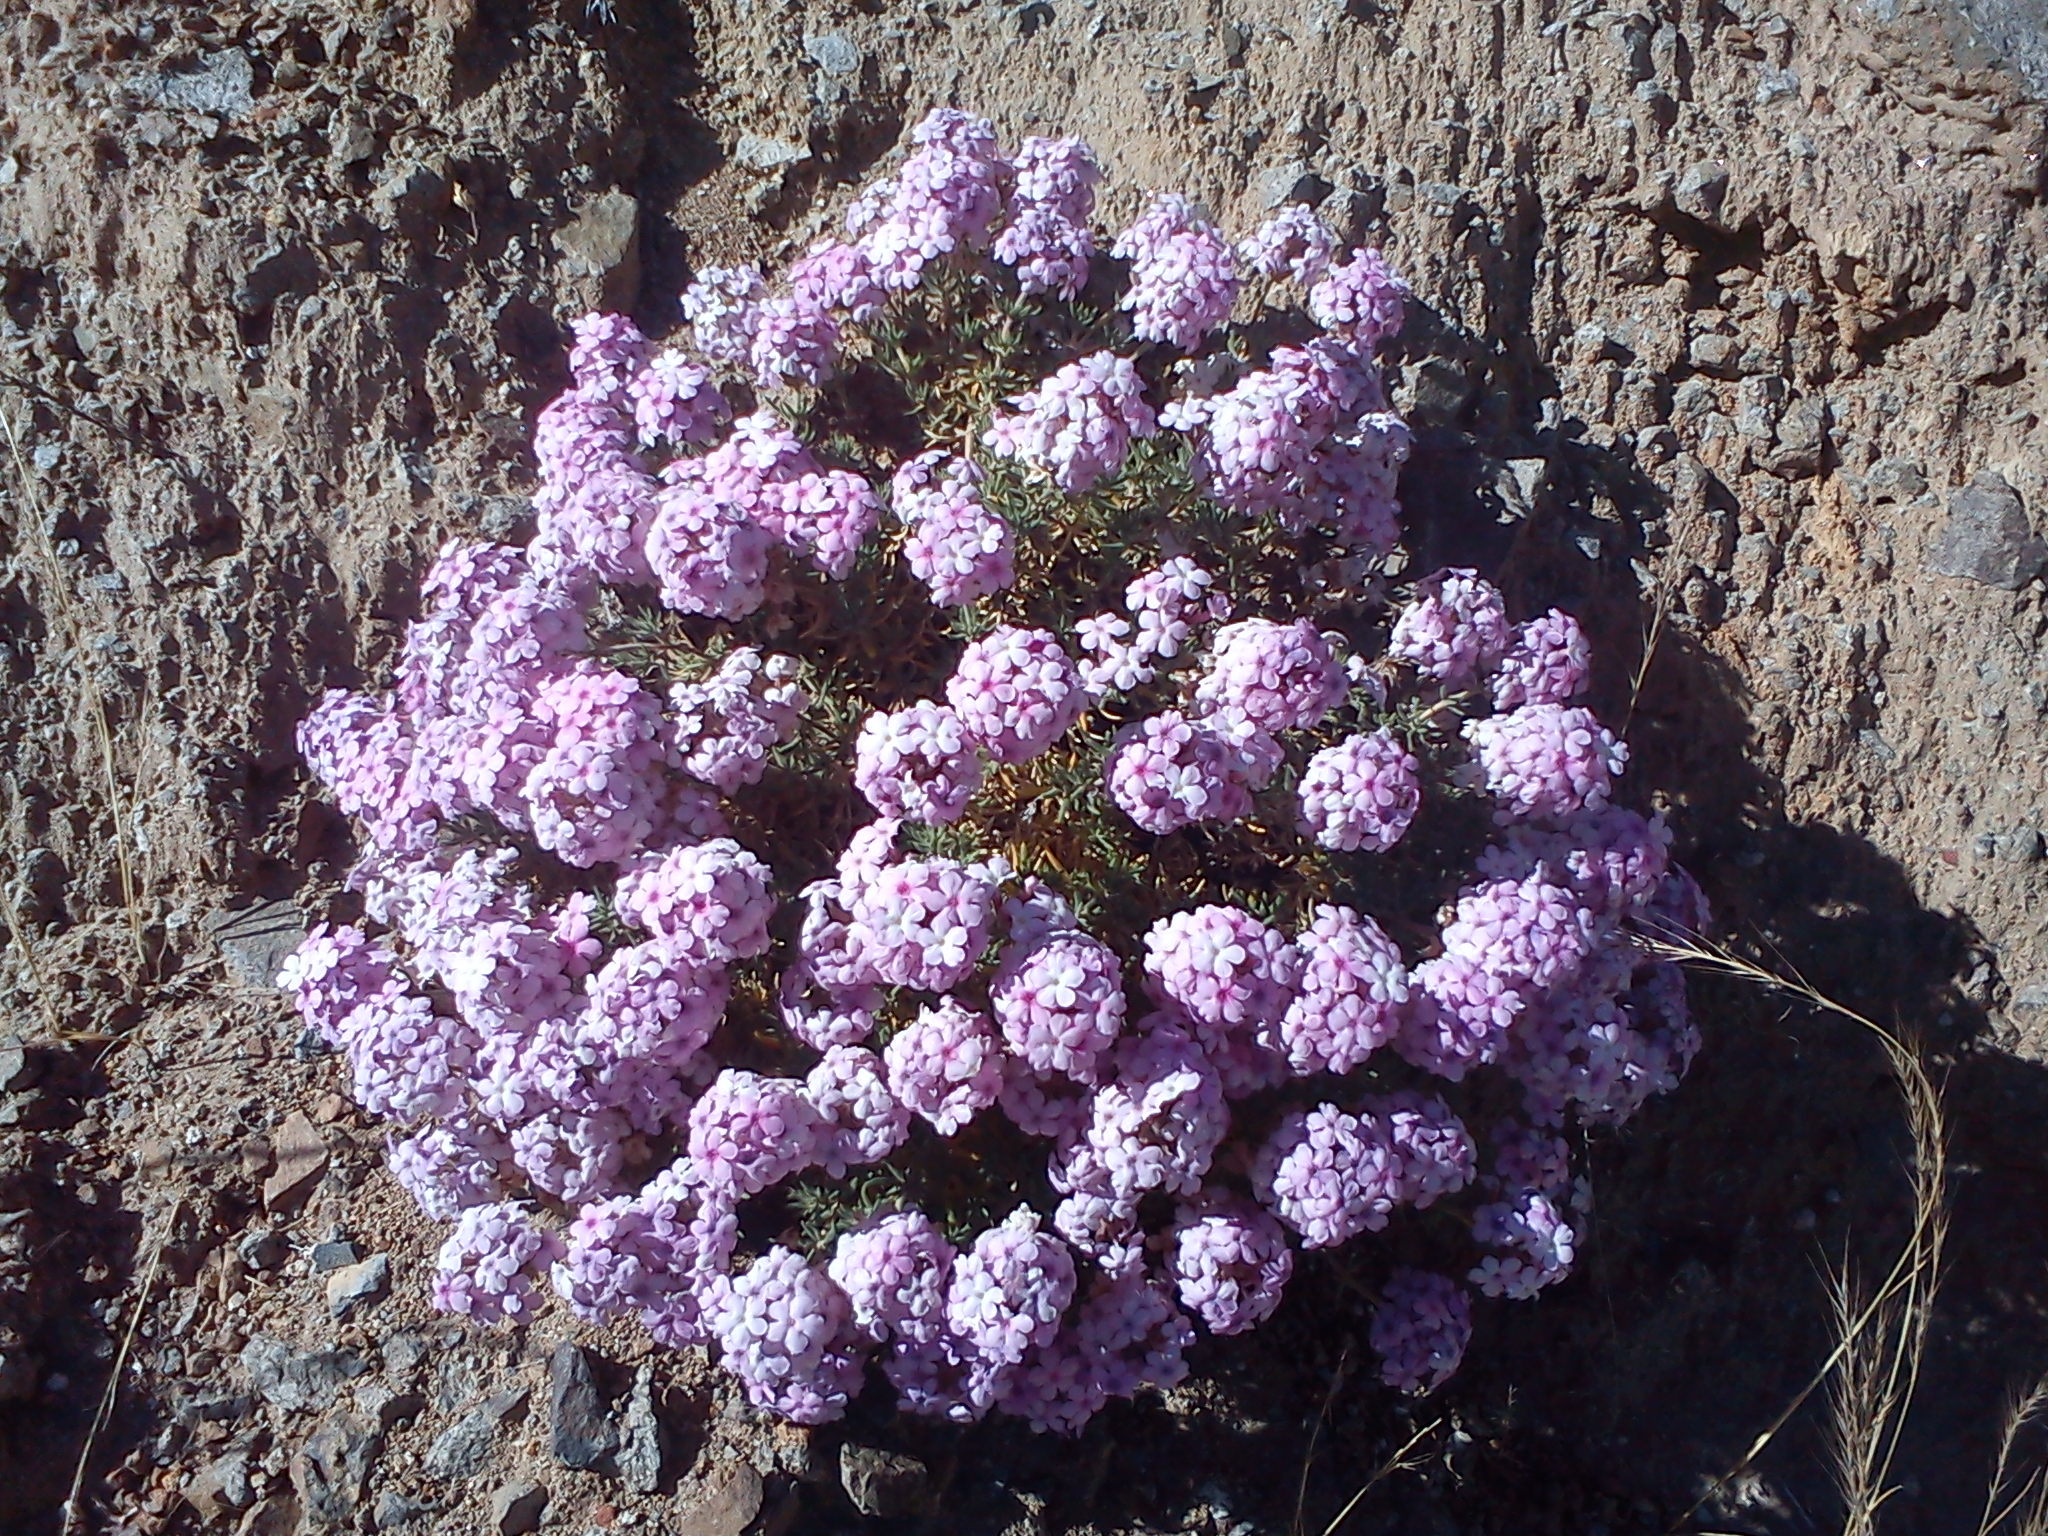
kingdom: Plantae
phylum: Tracheophyta
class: Magnoliopsida
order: Lamiales
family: Verbenaceae
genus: Junellia
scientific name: Junellia clavata
